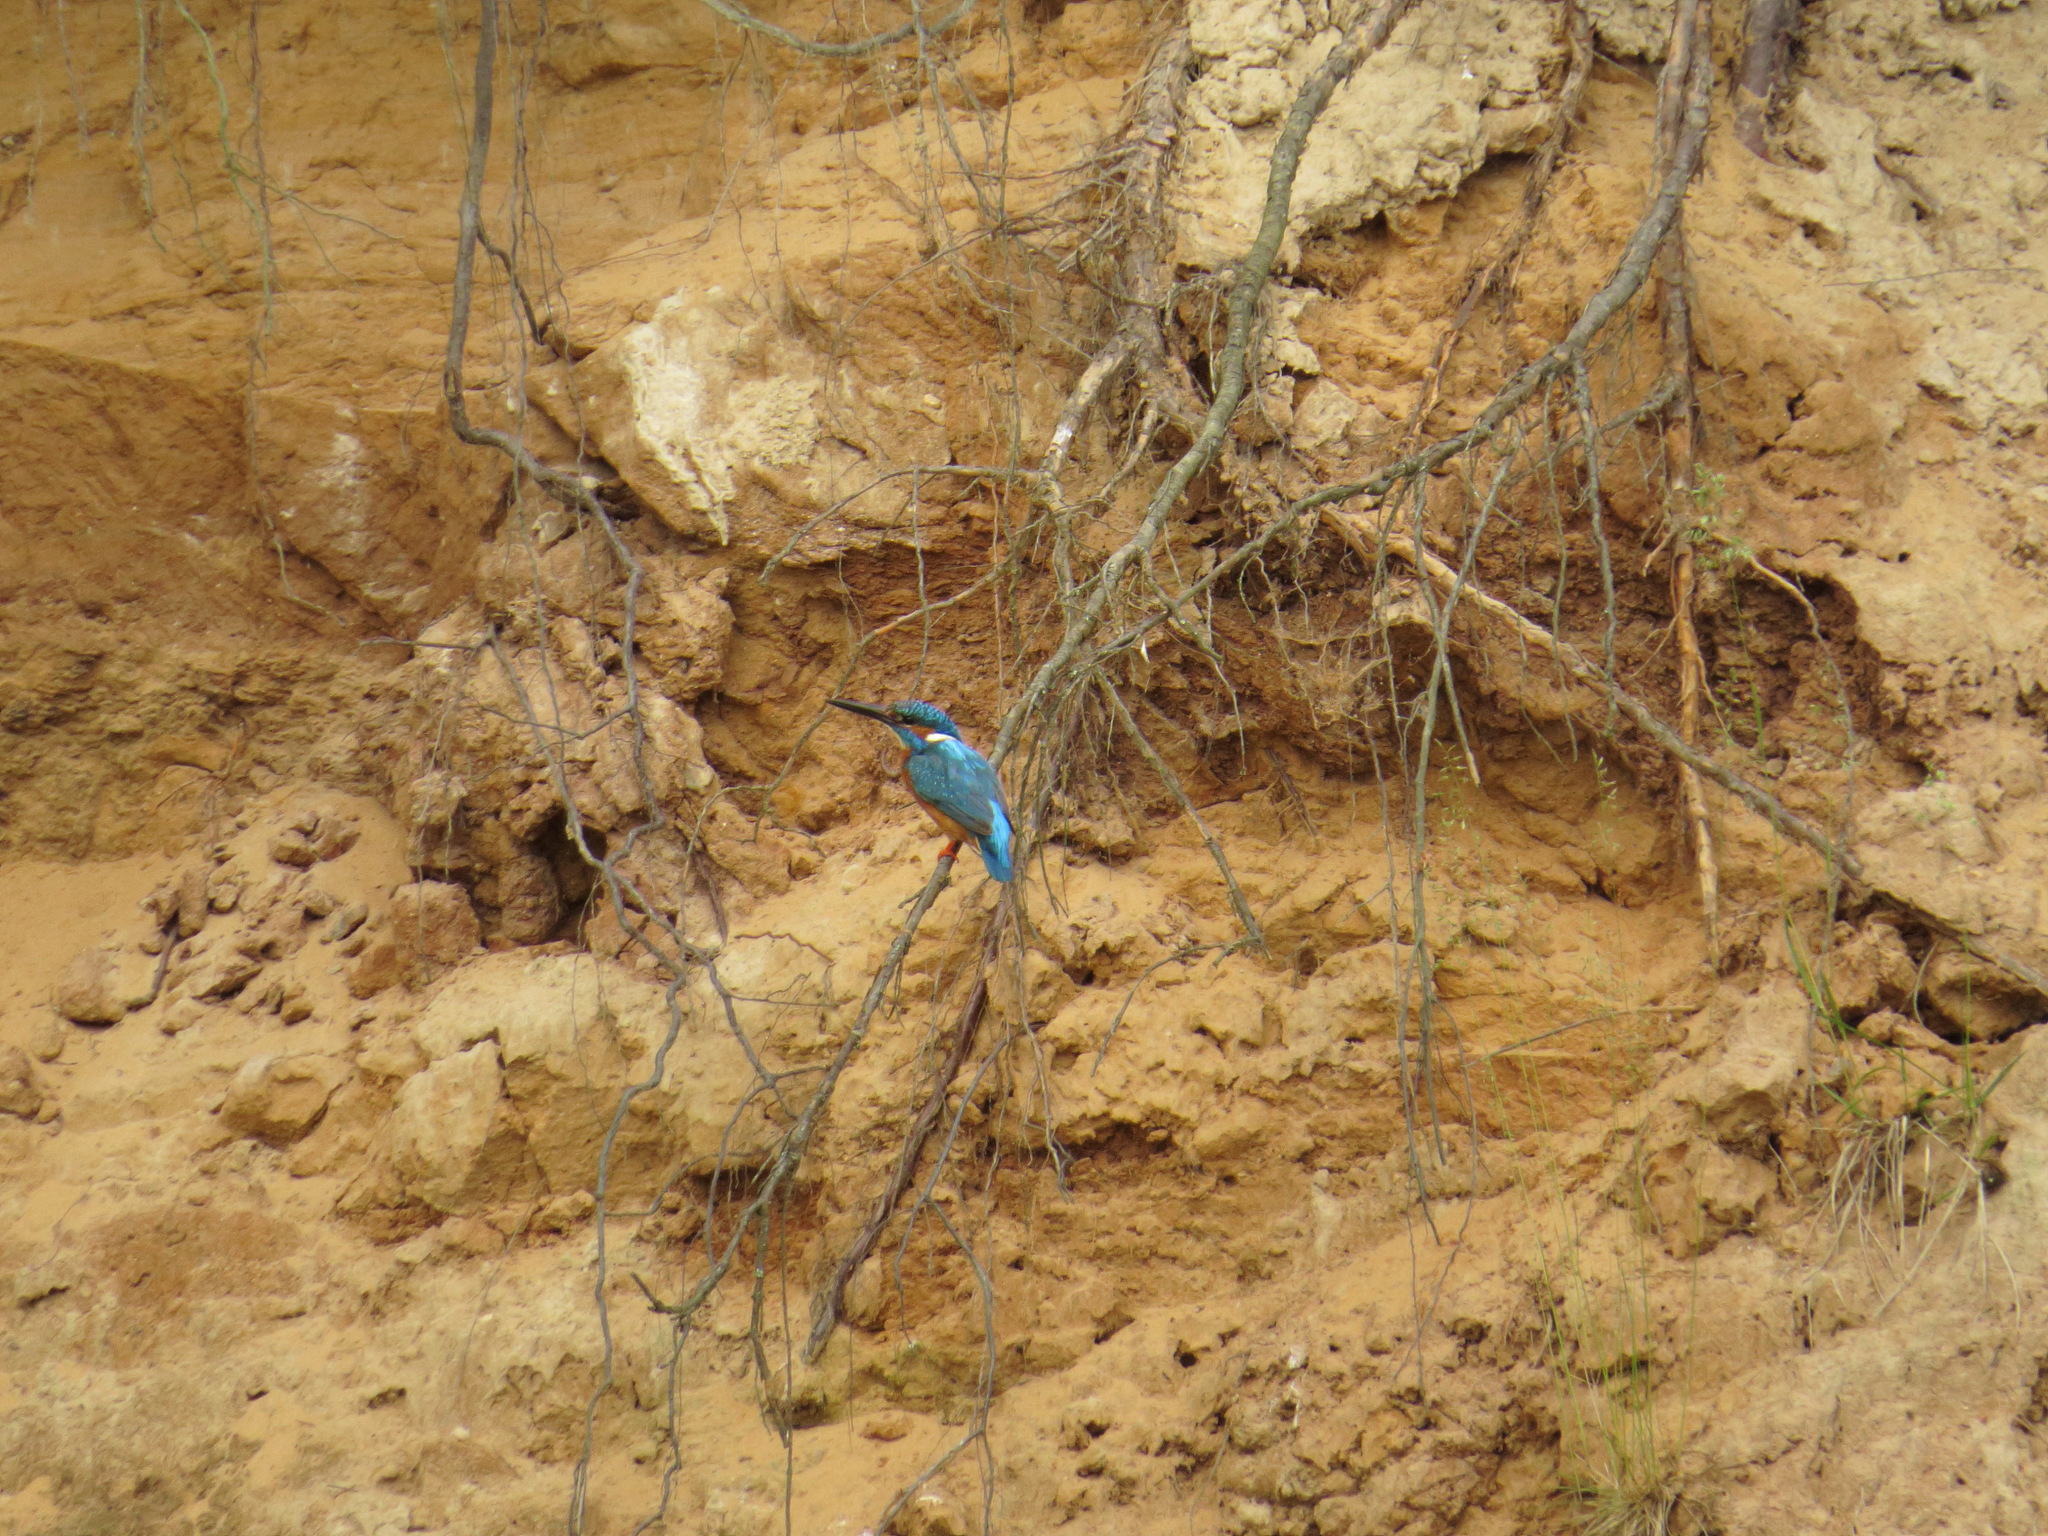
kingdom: Animalia
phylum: Chordata
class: Aves
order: Coraciiformes
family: Alcedinidae
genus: Alcedo
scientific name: Alcedo atthis
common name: Common kingfisher
